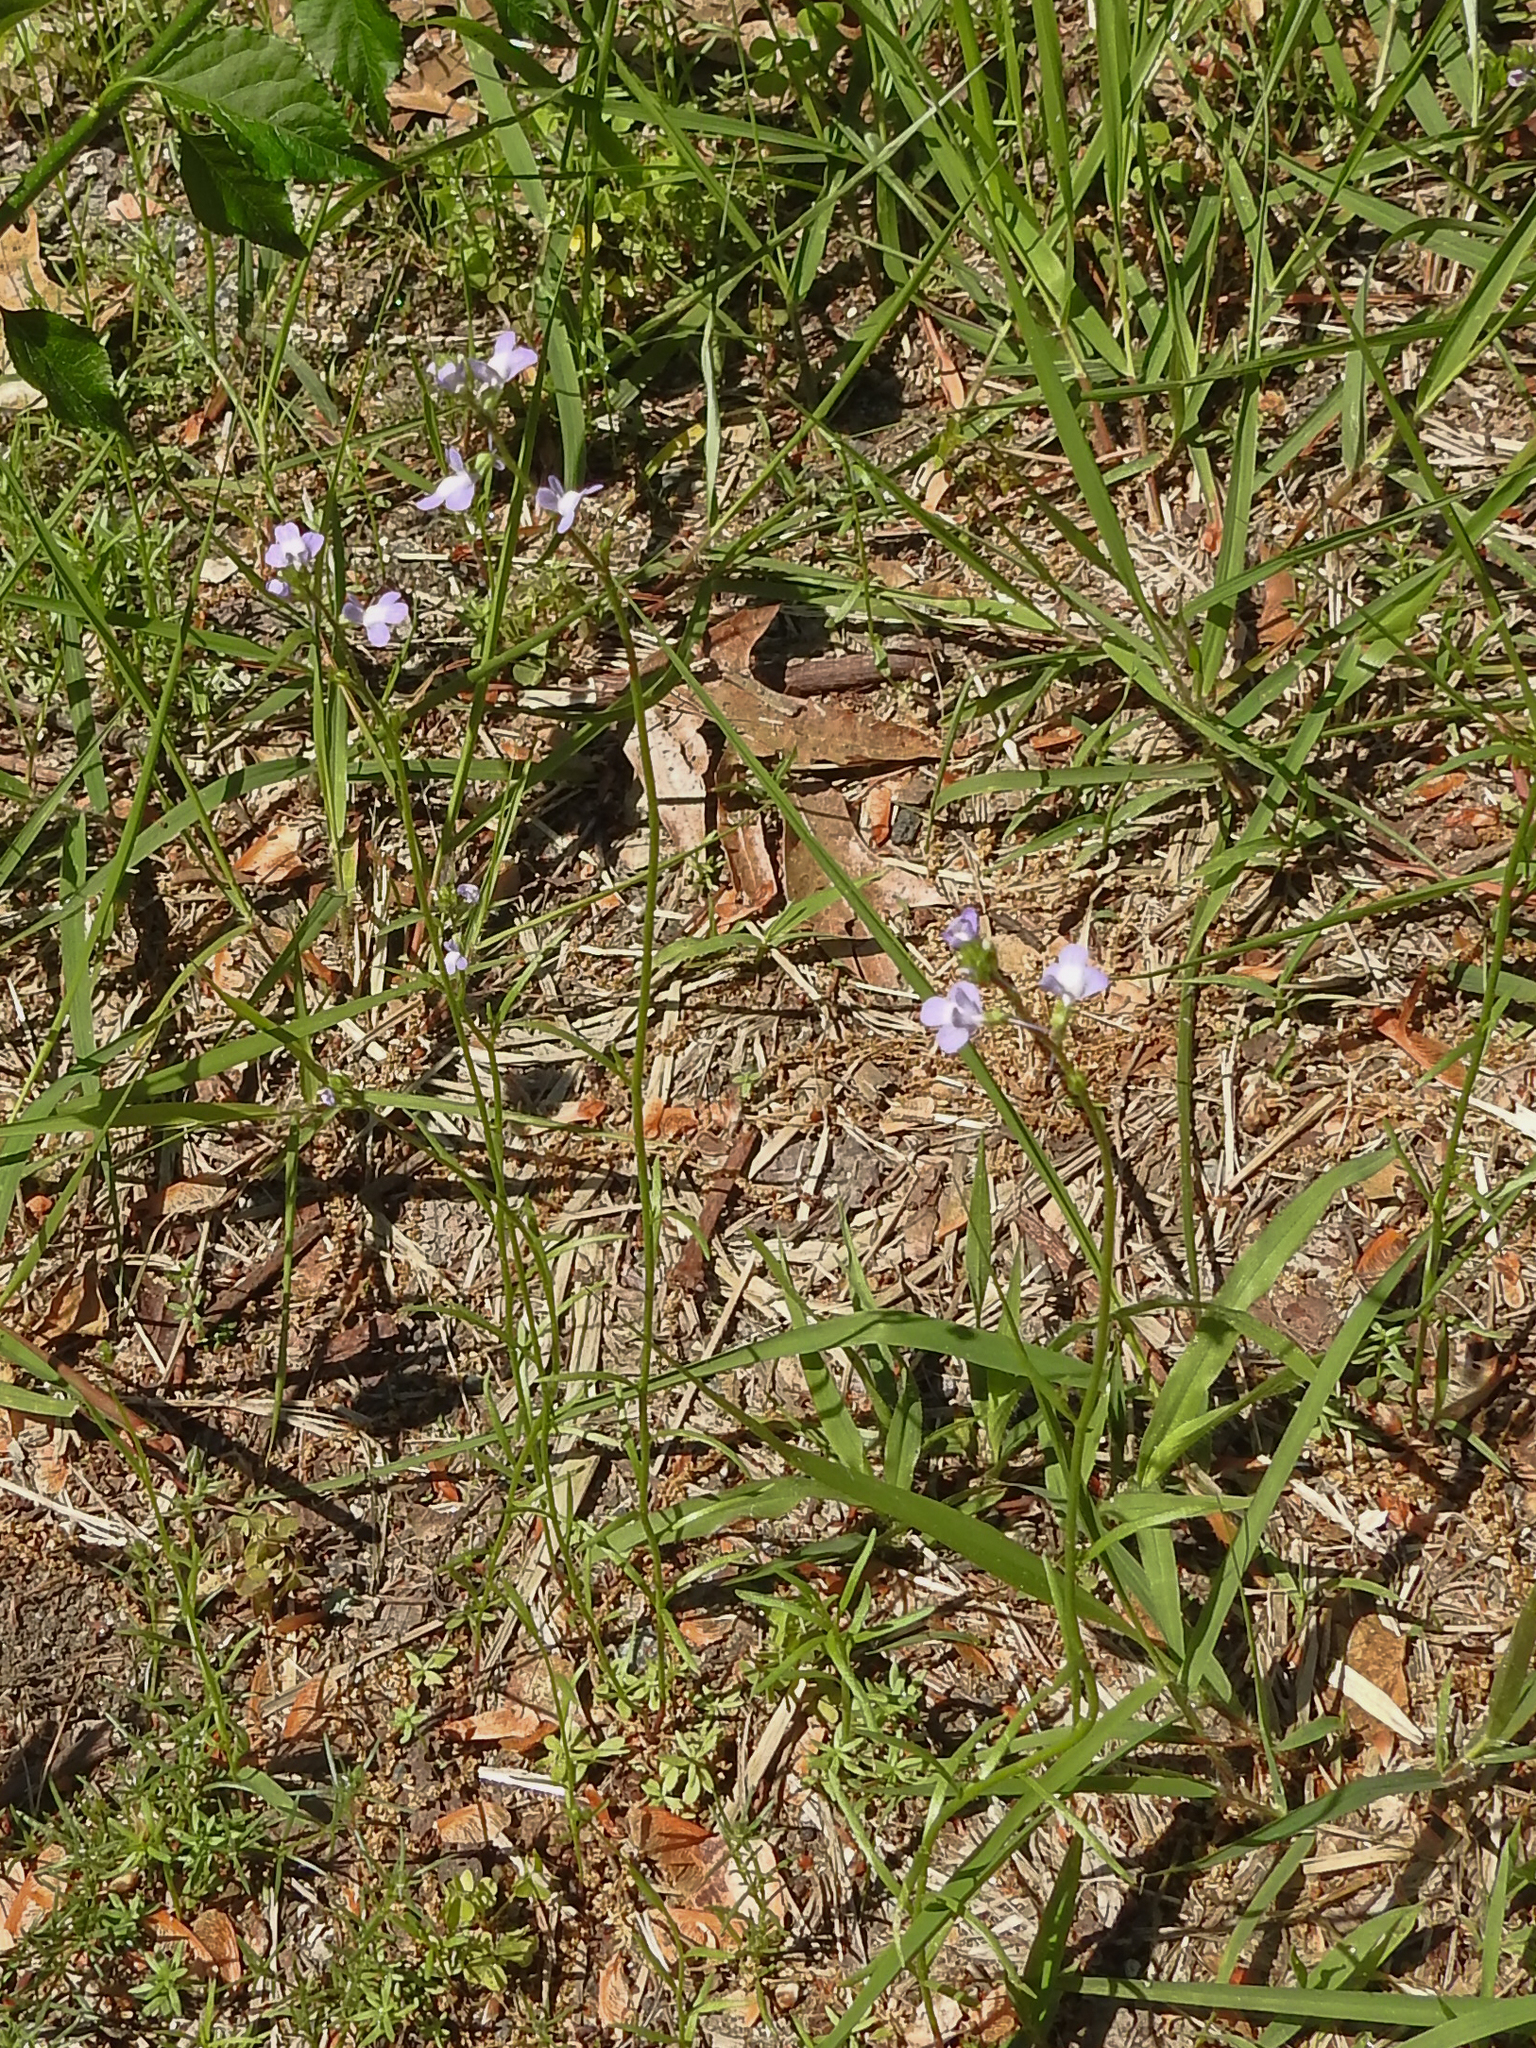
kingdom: Plantae
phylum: Tracheophyta
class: Magnoliopsida
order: Lamiales
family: Plantaginaceae
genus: Nuttallanthus
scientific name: Nuttallanthus canadensis
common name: Blue toadflax
